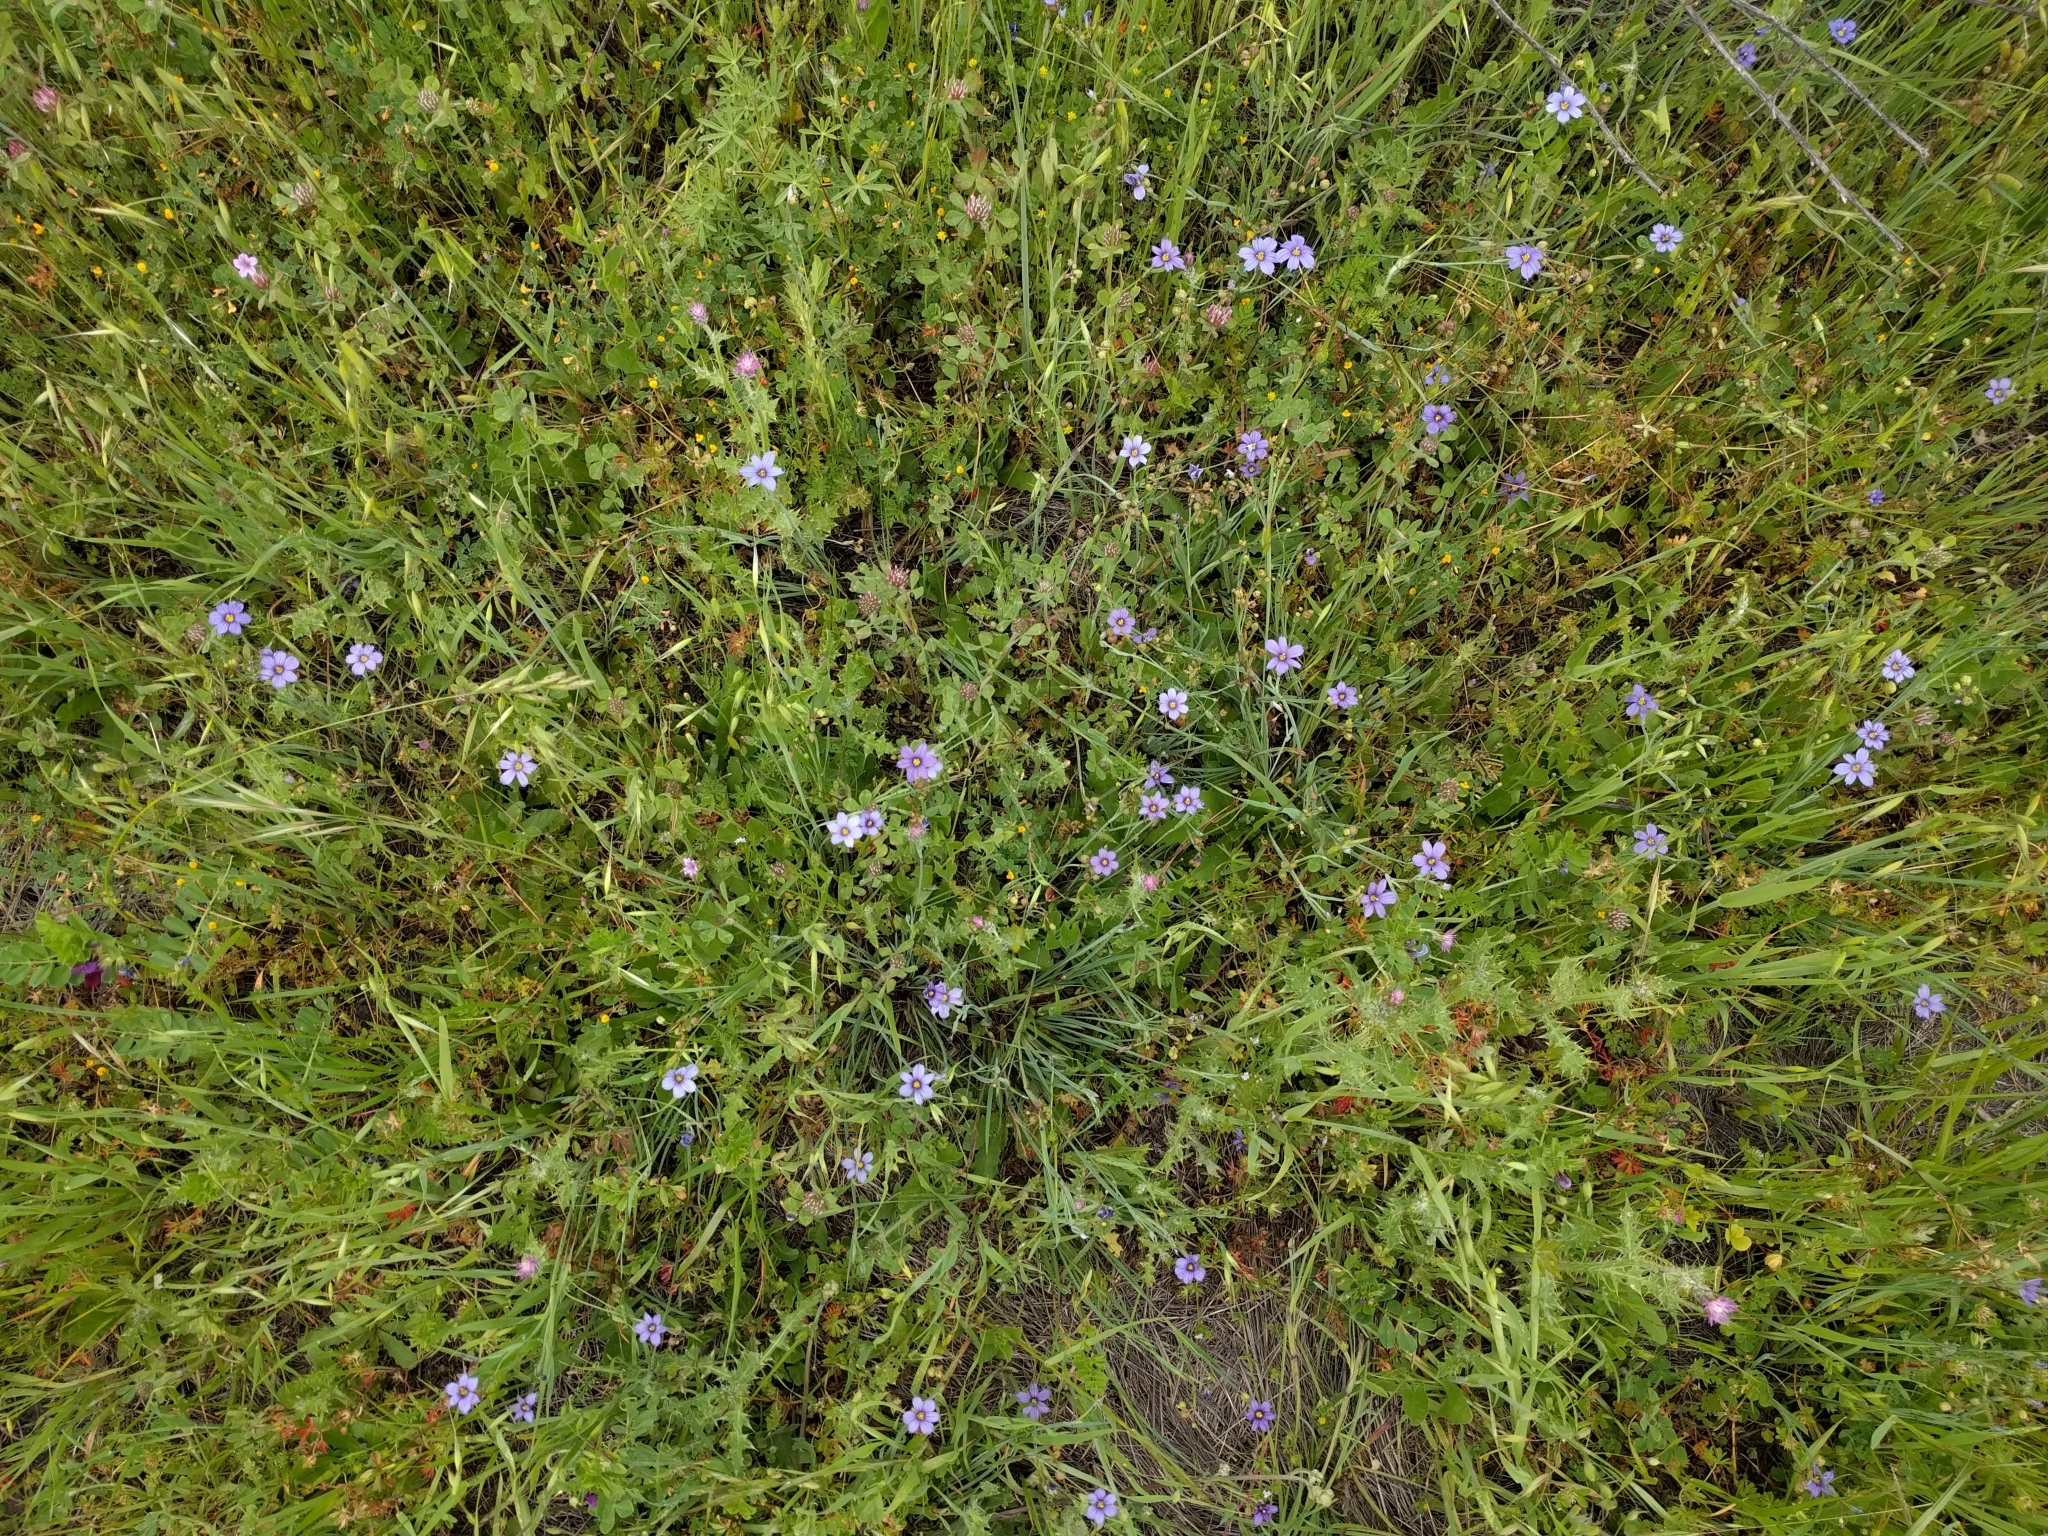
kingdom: Plantae
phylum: Tracheophyta
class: Liliopsida
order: Asparagales
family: Iridaceae
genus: Sisyrinchium
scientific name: Sisyrinchium bellum
